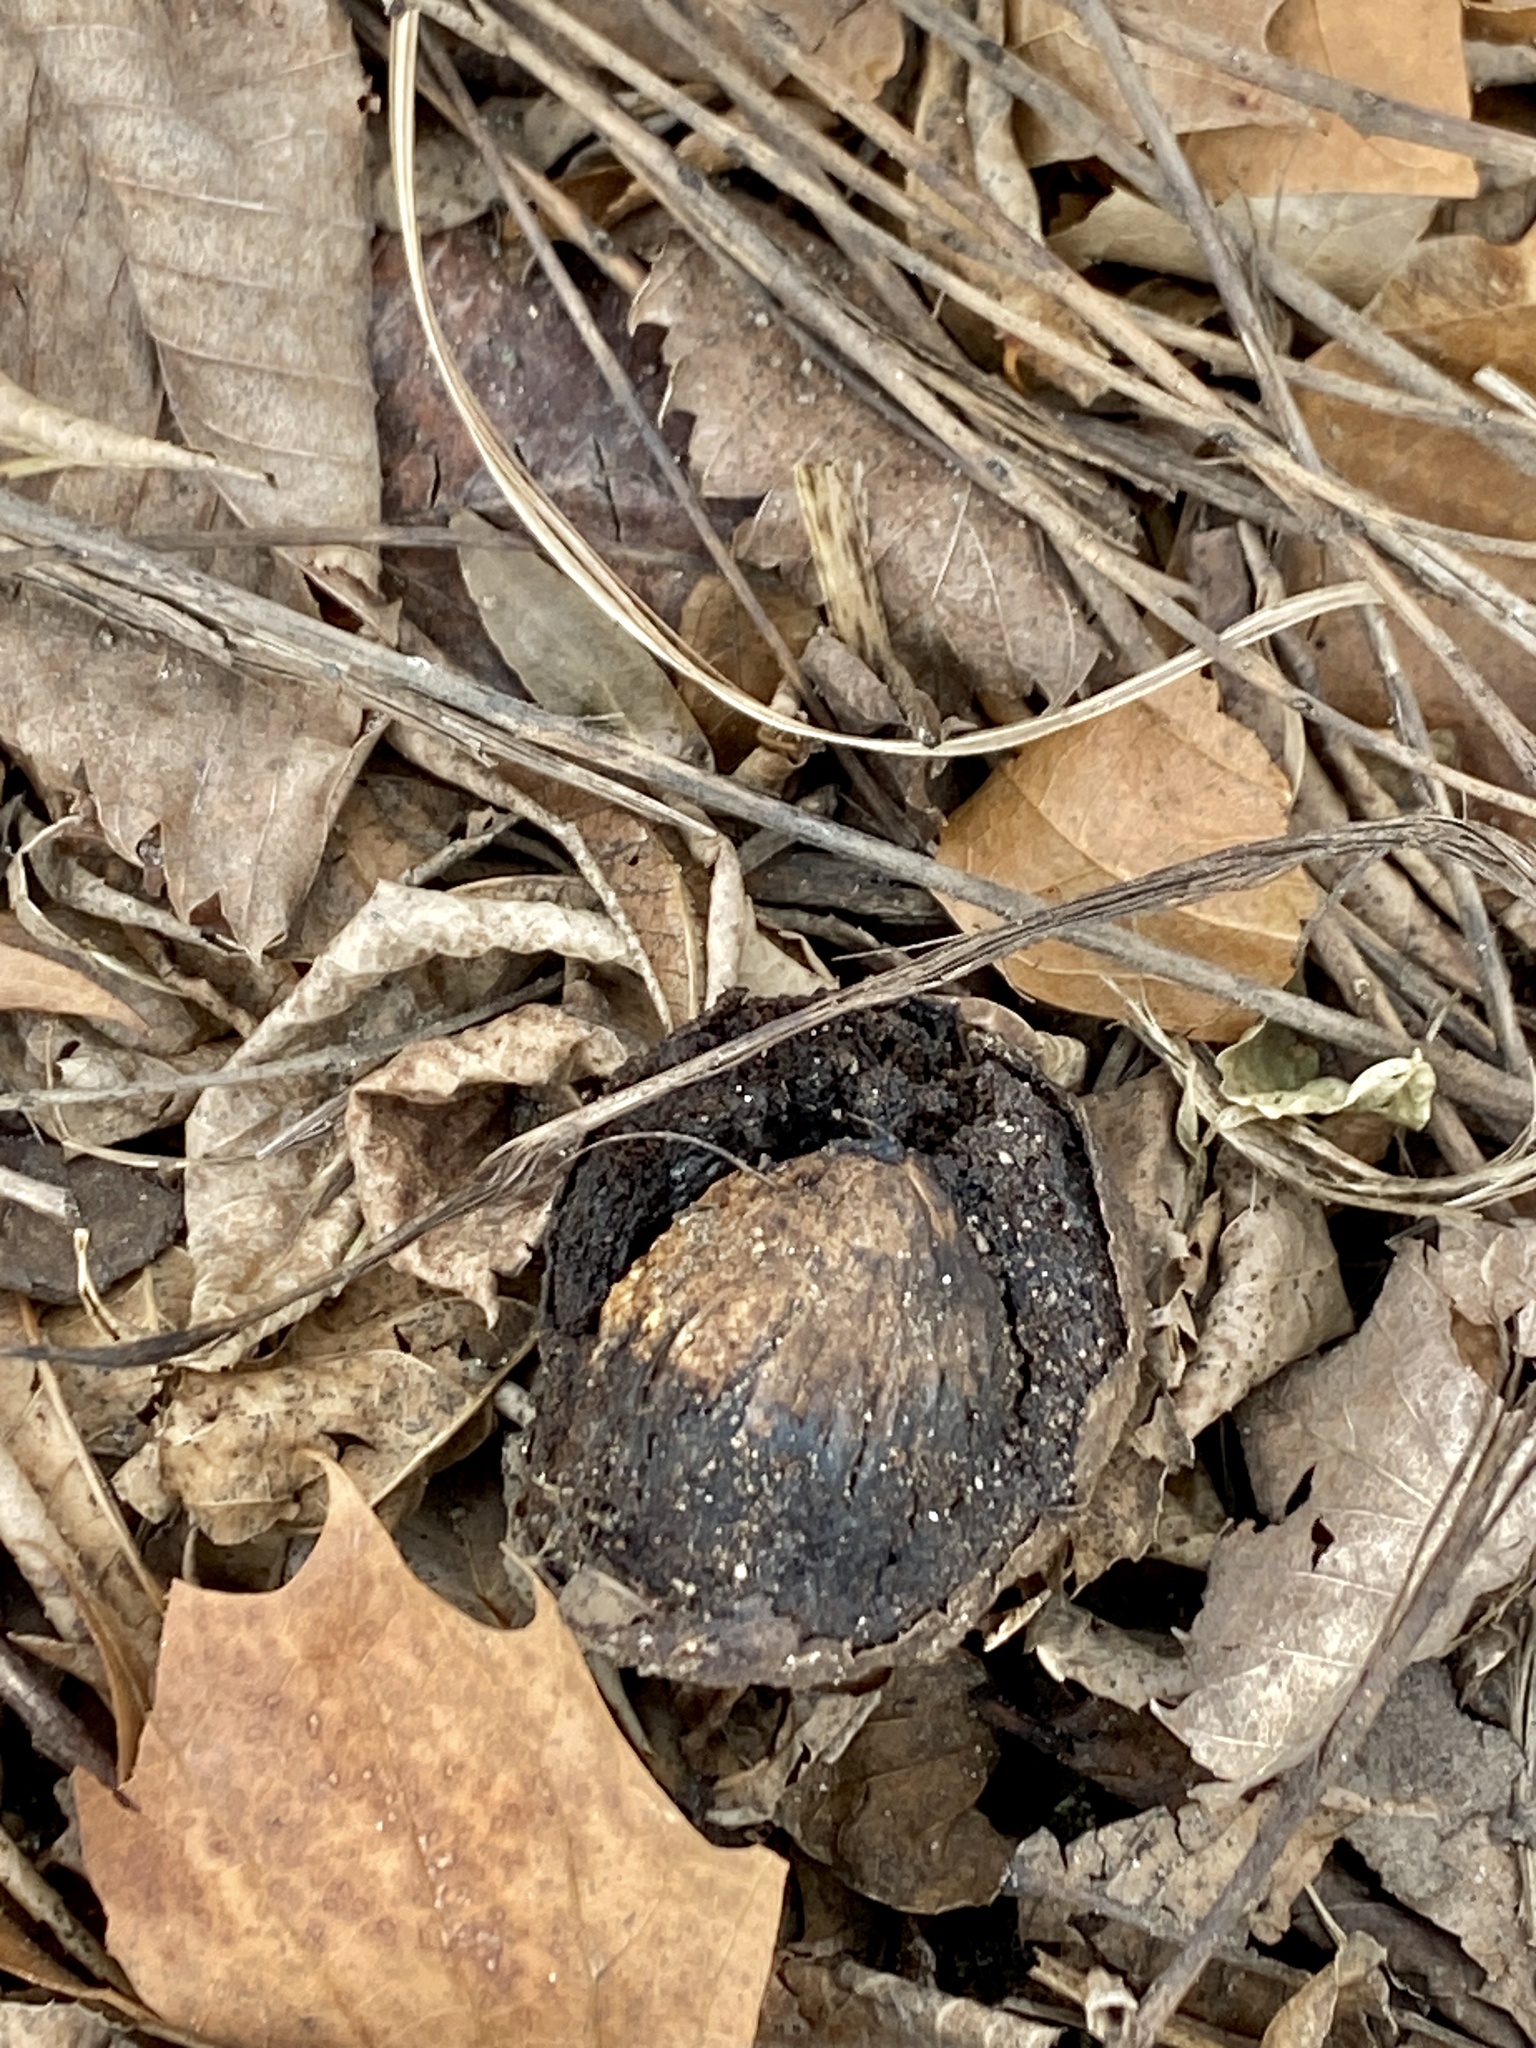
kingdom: Plantae
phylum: Tracheophyta
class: Magnoliopsida
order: Fagales
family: Juglandaceae
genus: Juglans
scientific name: Juglans nigra
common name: Black walnut
